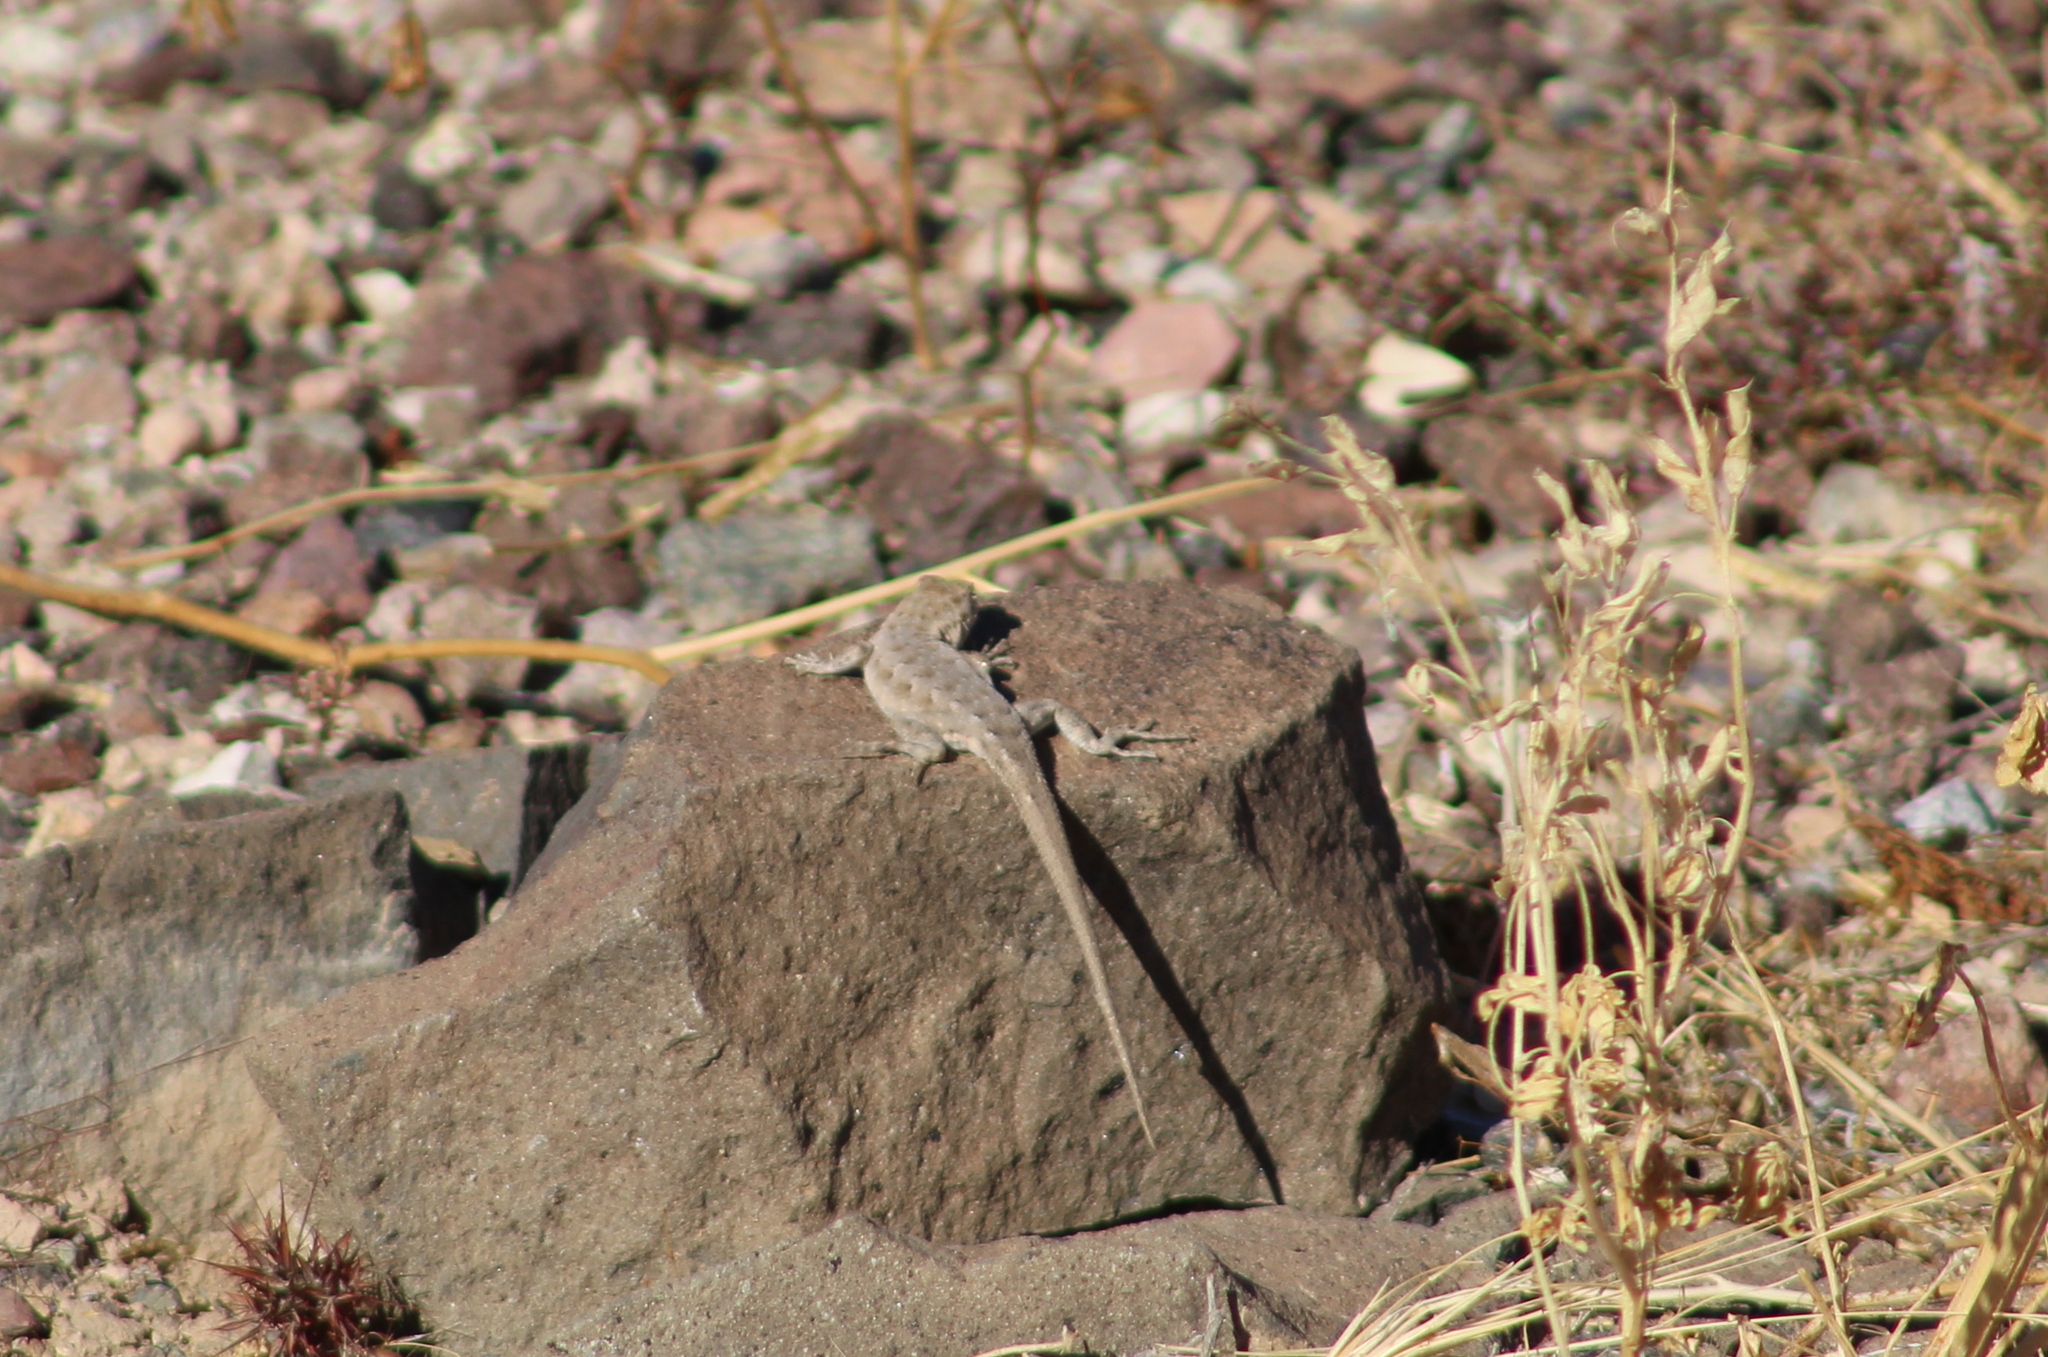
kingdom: Animalia
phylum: Chordata
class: Squamata
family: Phrynosomatidae
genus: Uta
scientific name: Uta stansburiana
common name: Side-blotched lizard
